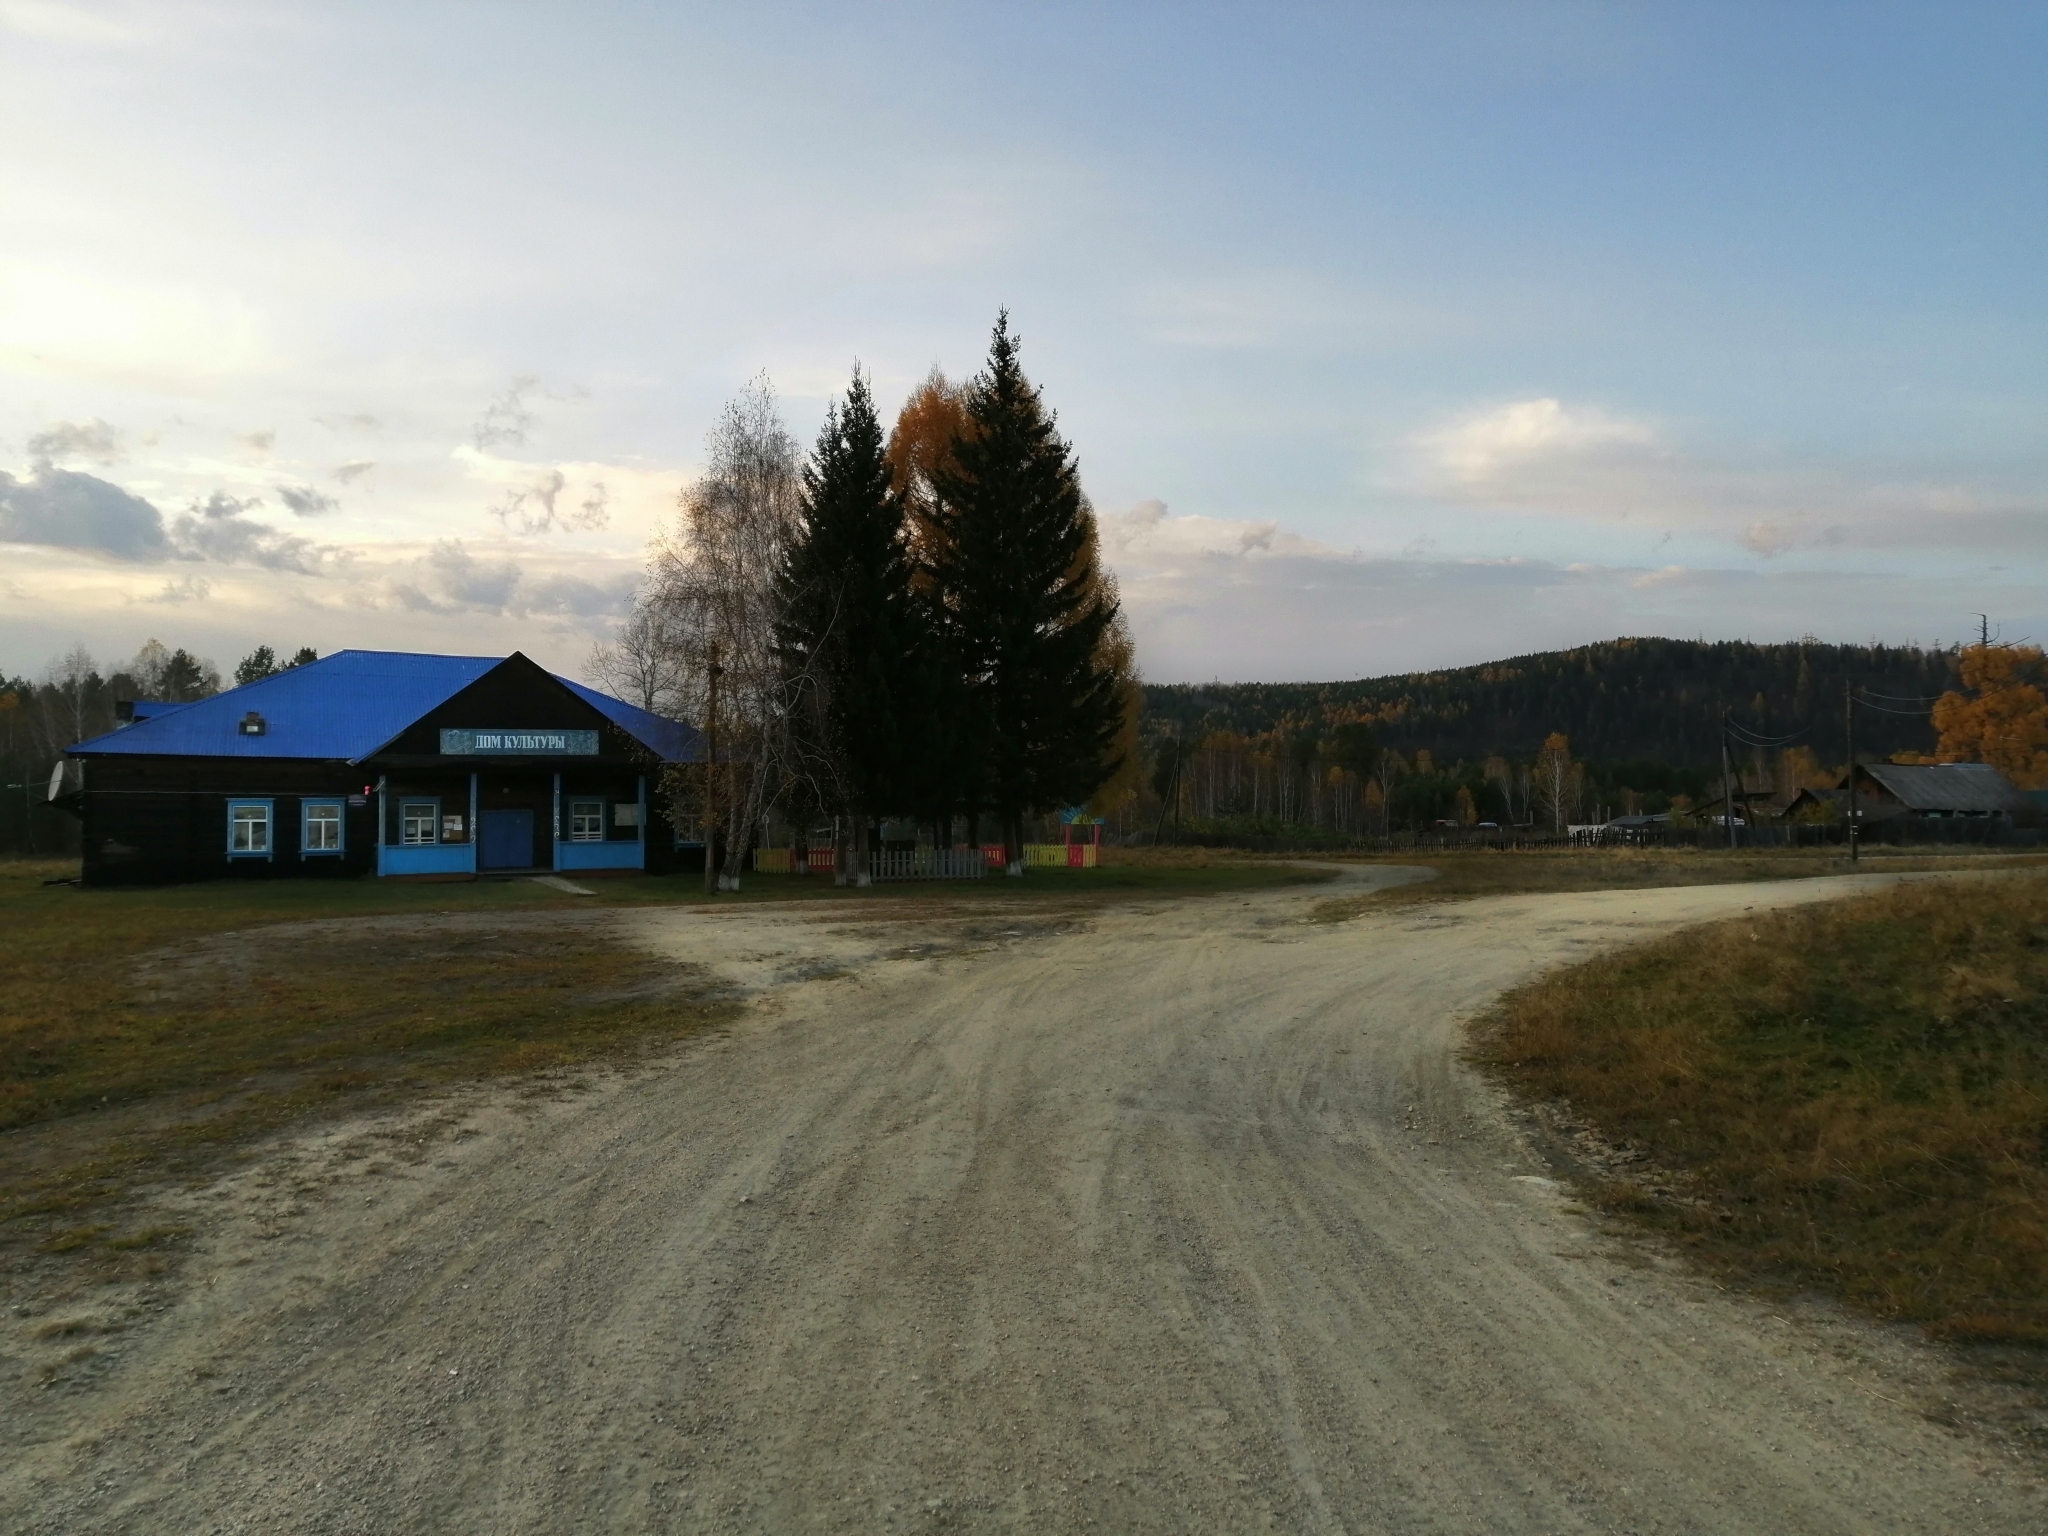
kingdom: Plantae
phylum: Tracheophyta
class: Pinopsida
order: Pinales
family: Pinaceae
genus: Picea
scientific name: Picea obovata
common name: Siberian spruce
